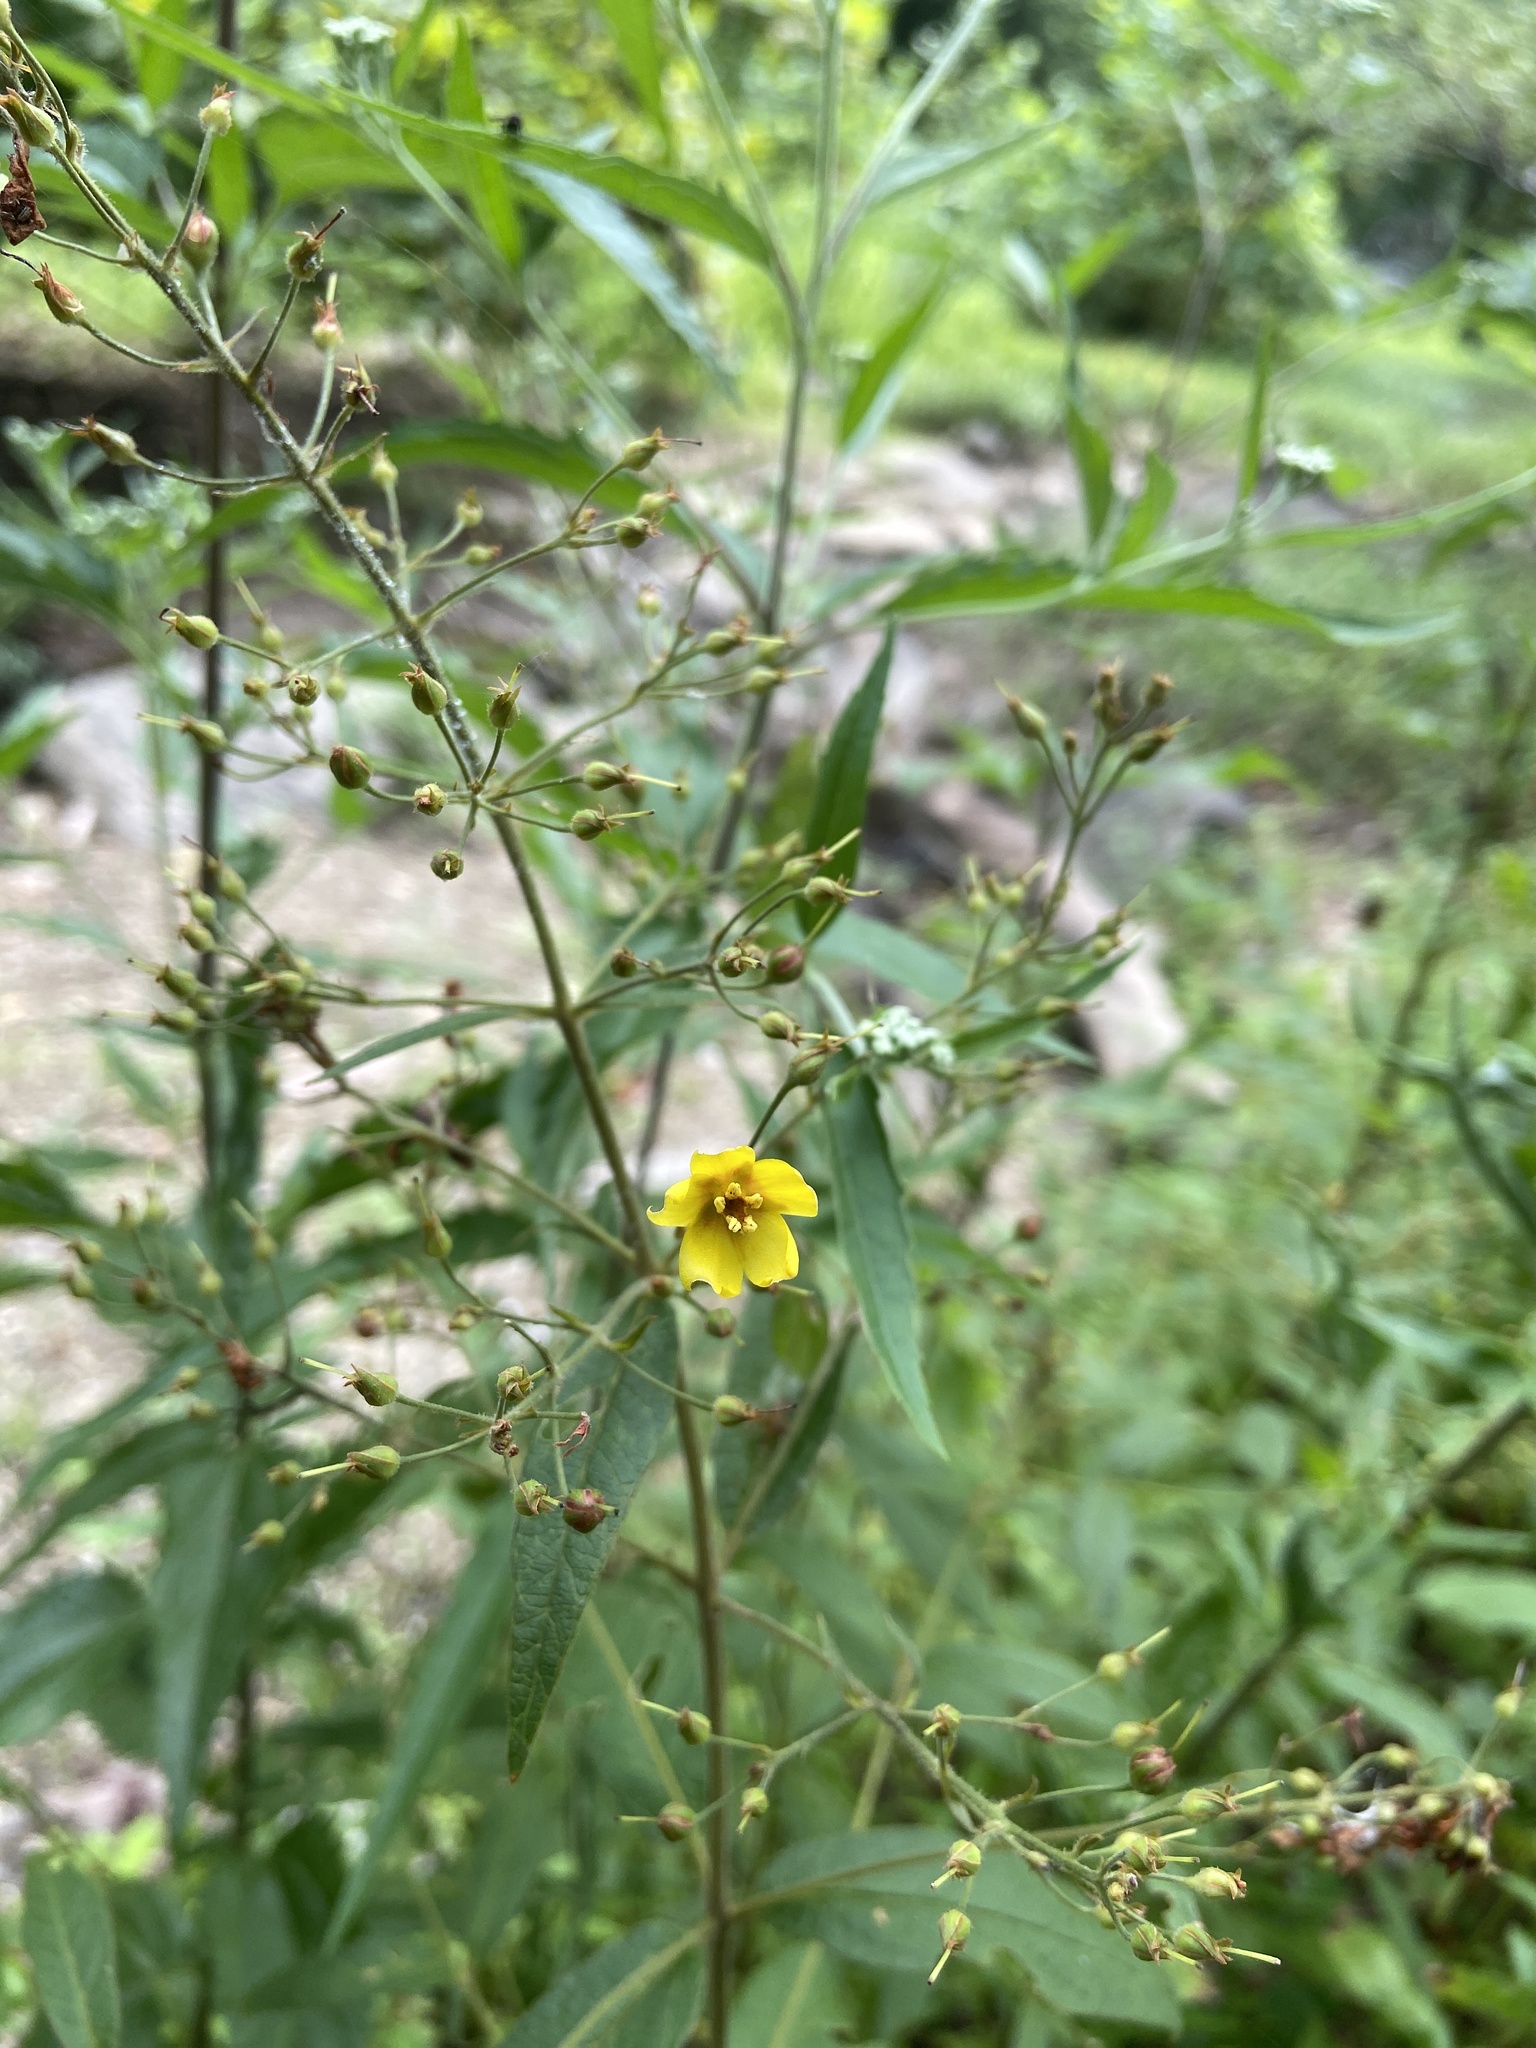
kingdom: Plantae
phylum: Tracheophyta
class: Magnoliopsida
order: Ericales
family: Primulaceae
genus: Lysimachia
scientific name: Lysimachia vulgaris
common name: Yellow loosestrife
